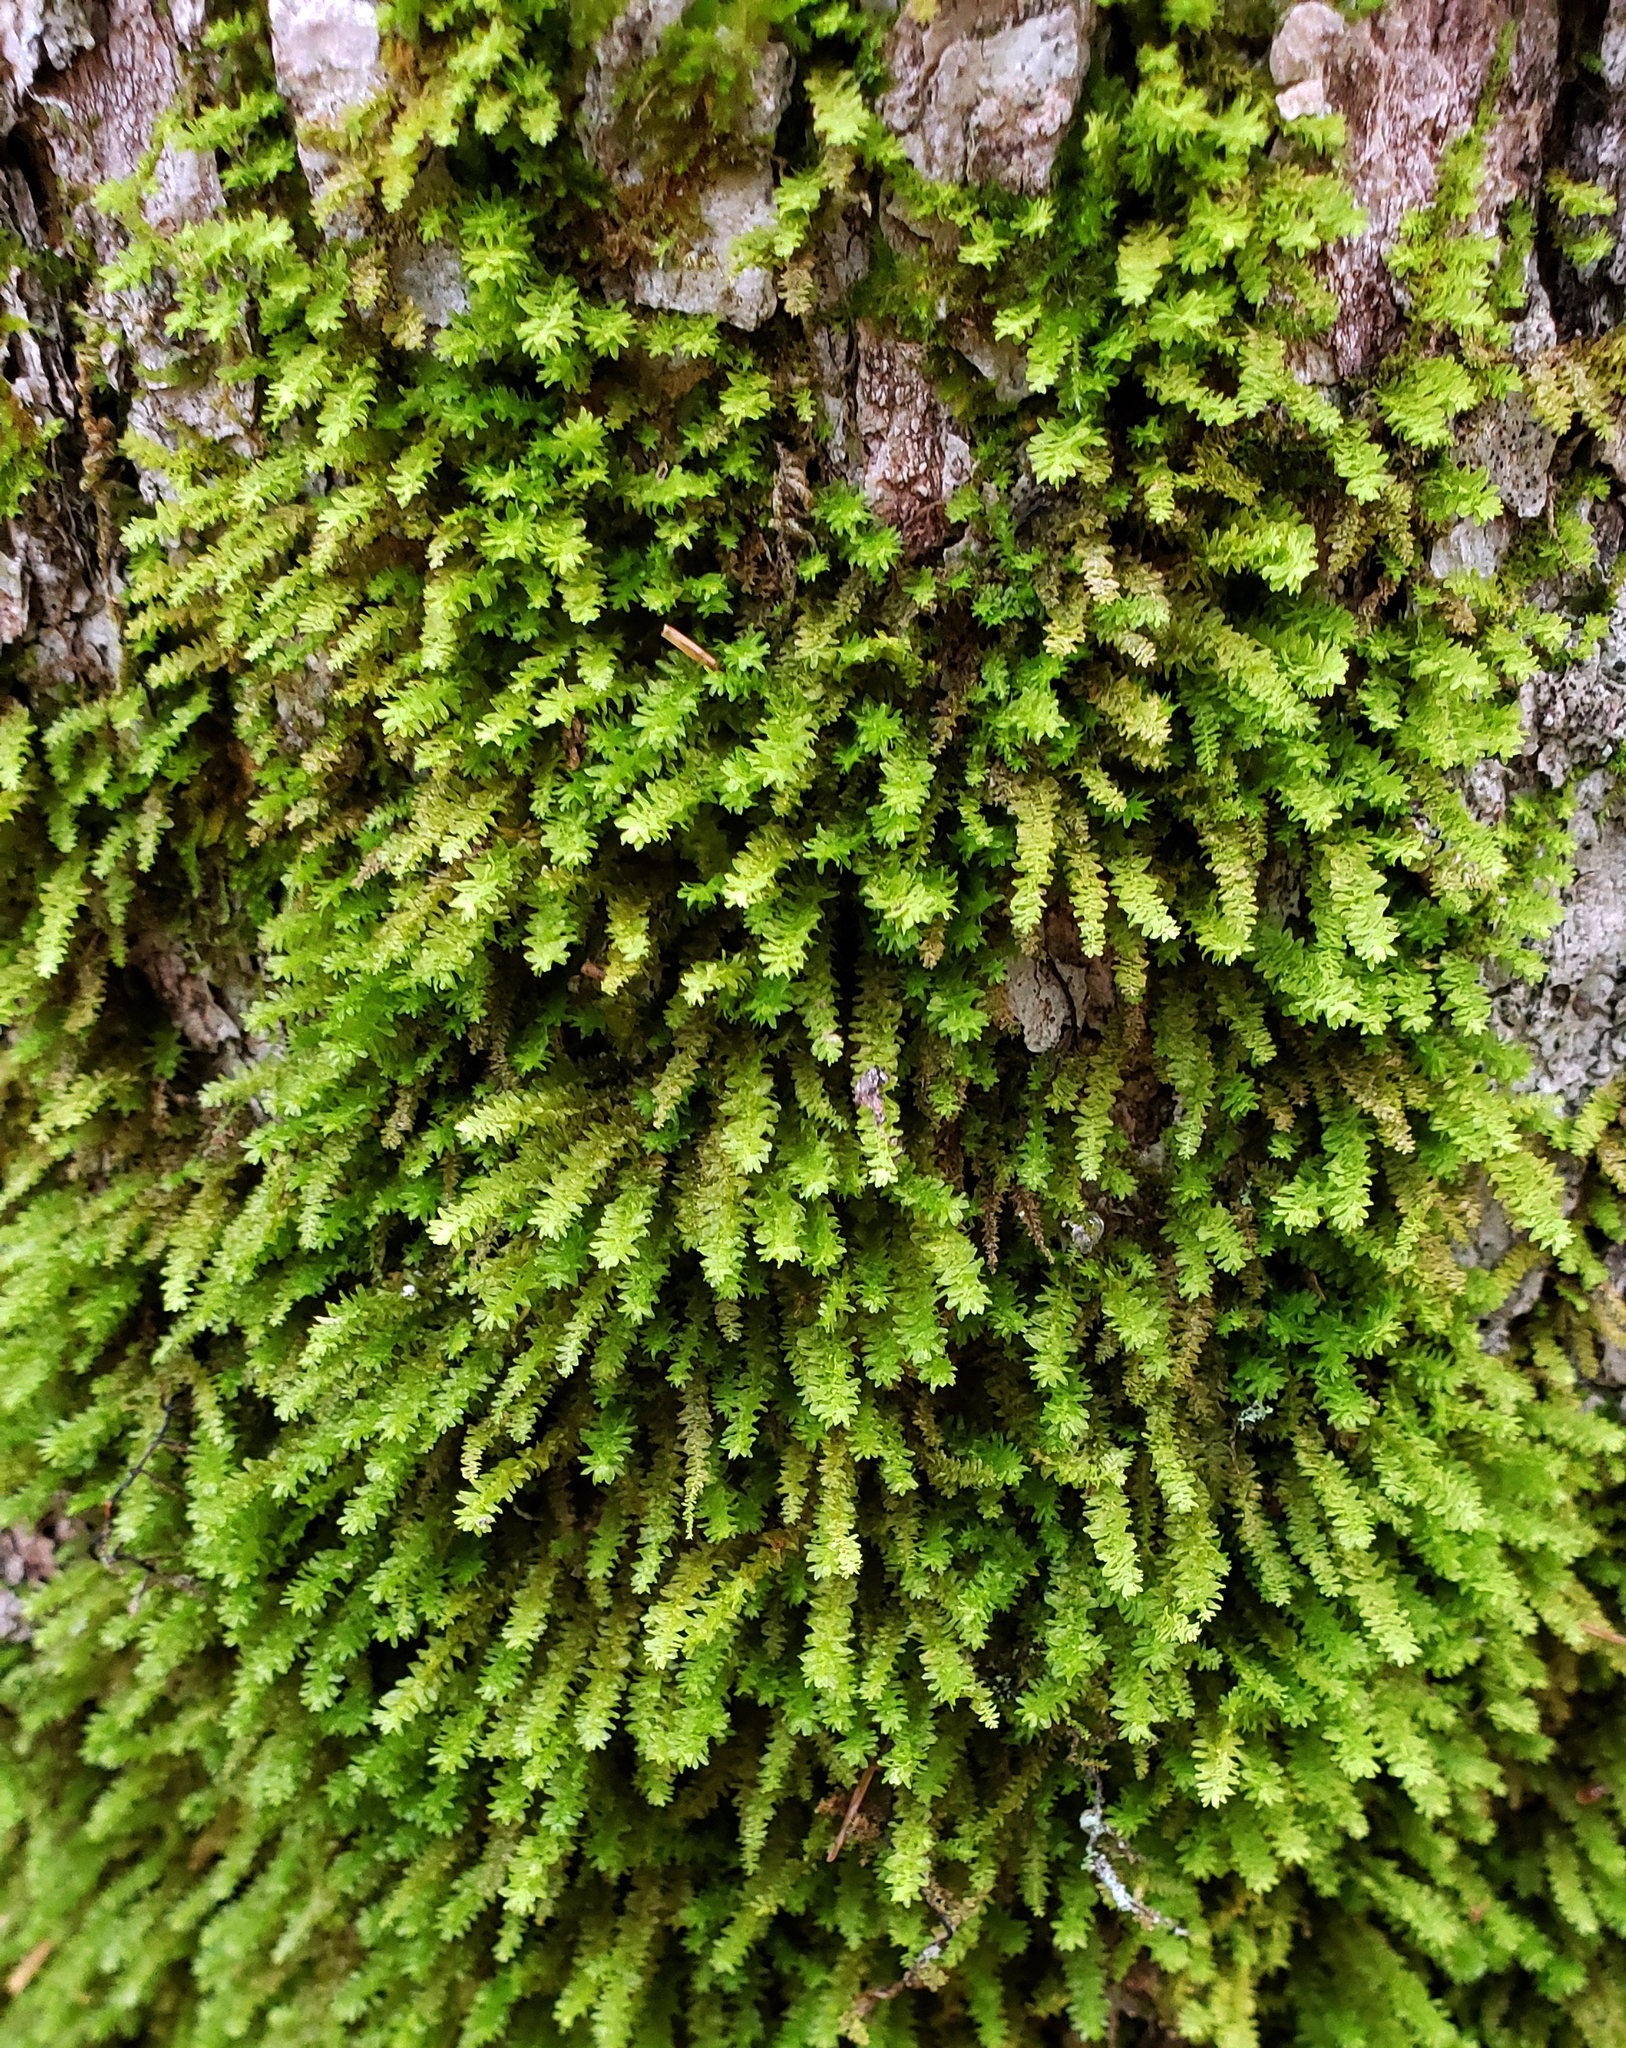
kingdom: Plantae
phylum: Bryophyta
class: Bryopsida
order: Hypnales
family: Neckeraceae
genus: Pseudanomodon
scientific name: Pseudanomodon attenuatus
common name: Tree-skirt moss
